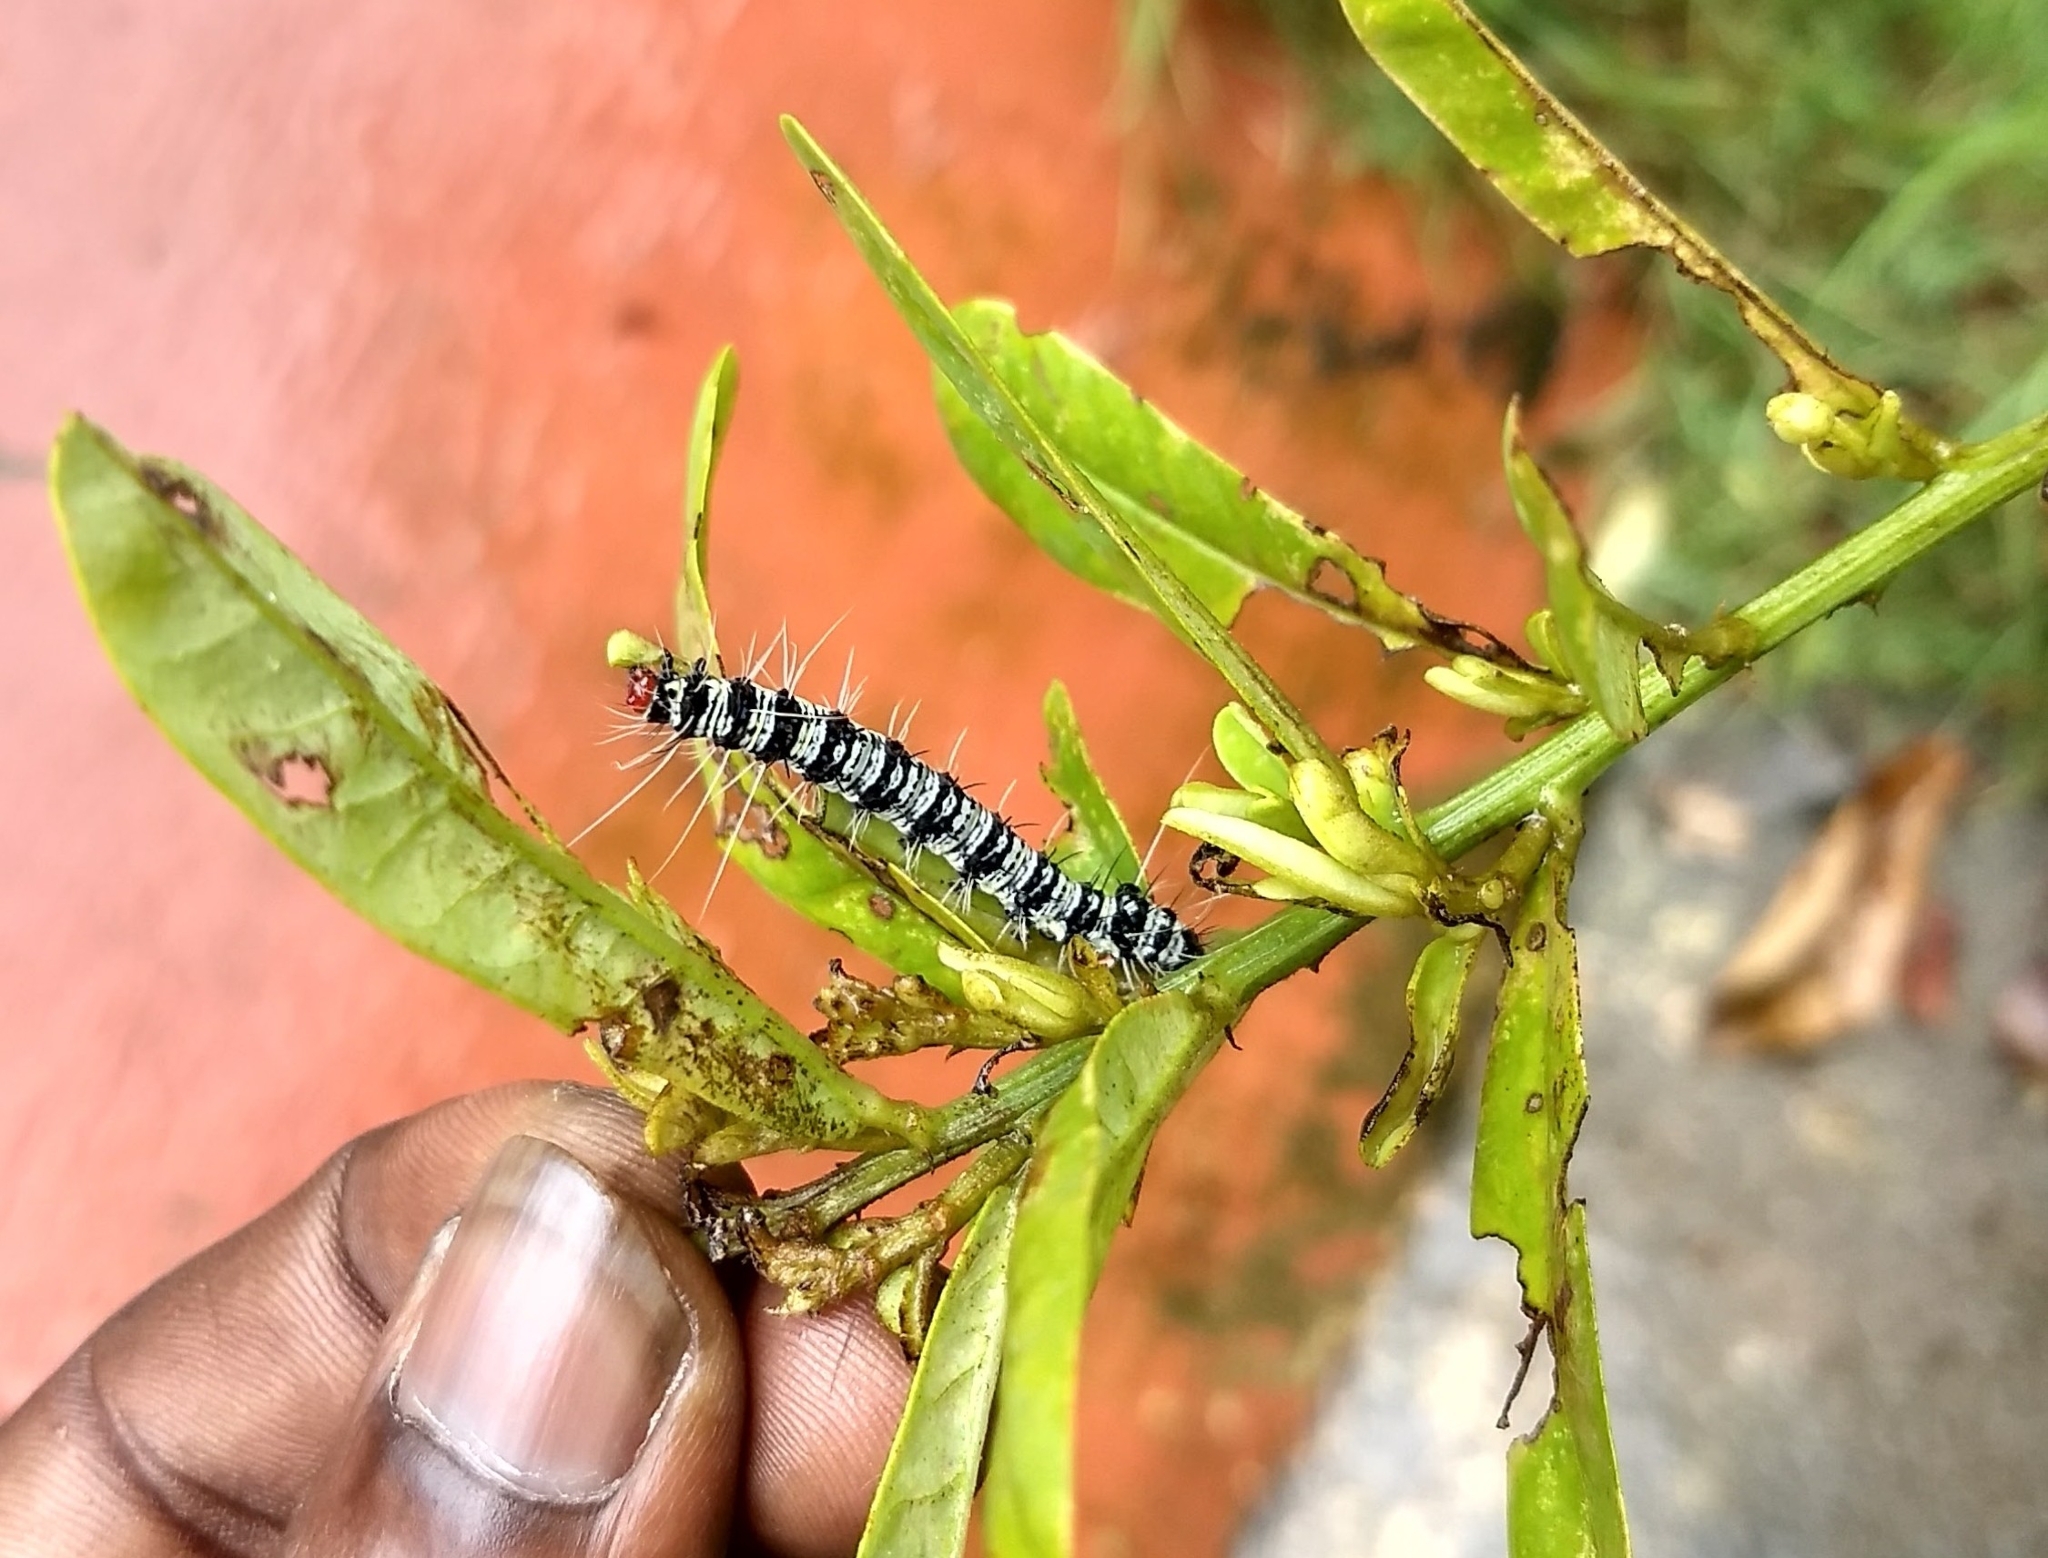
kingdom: Animalia
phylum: Arthropoda
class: Insecta
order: Lepidoptera
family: Erebidae
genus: Argina
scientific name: Argina astrea
